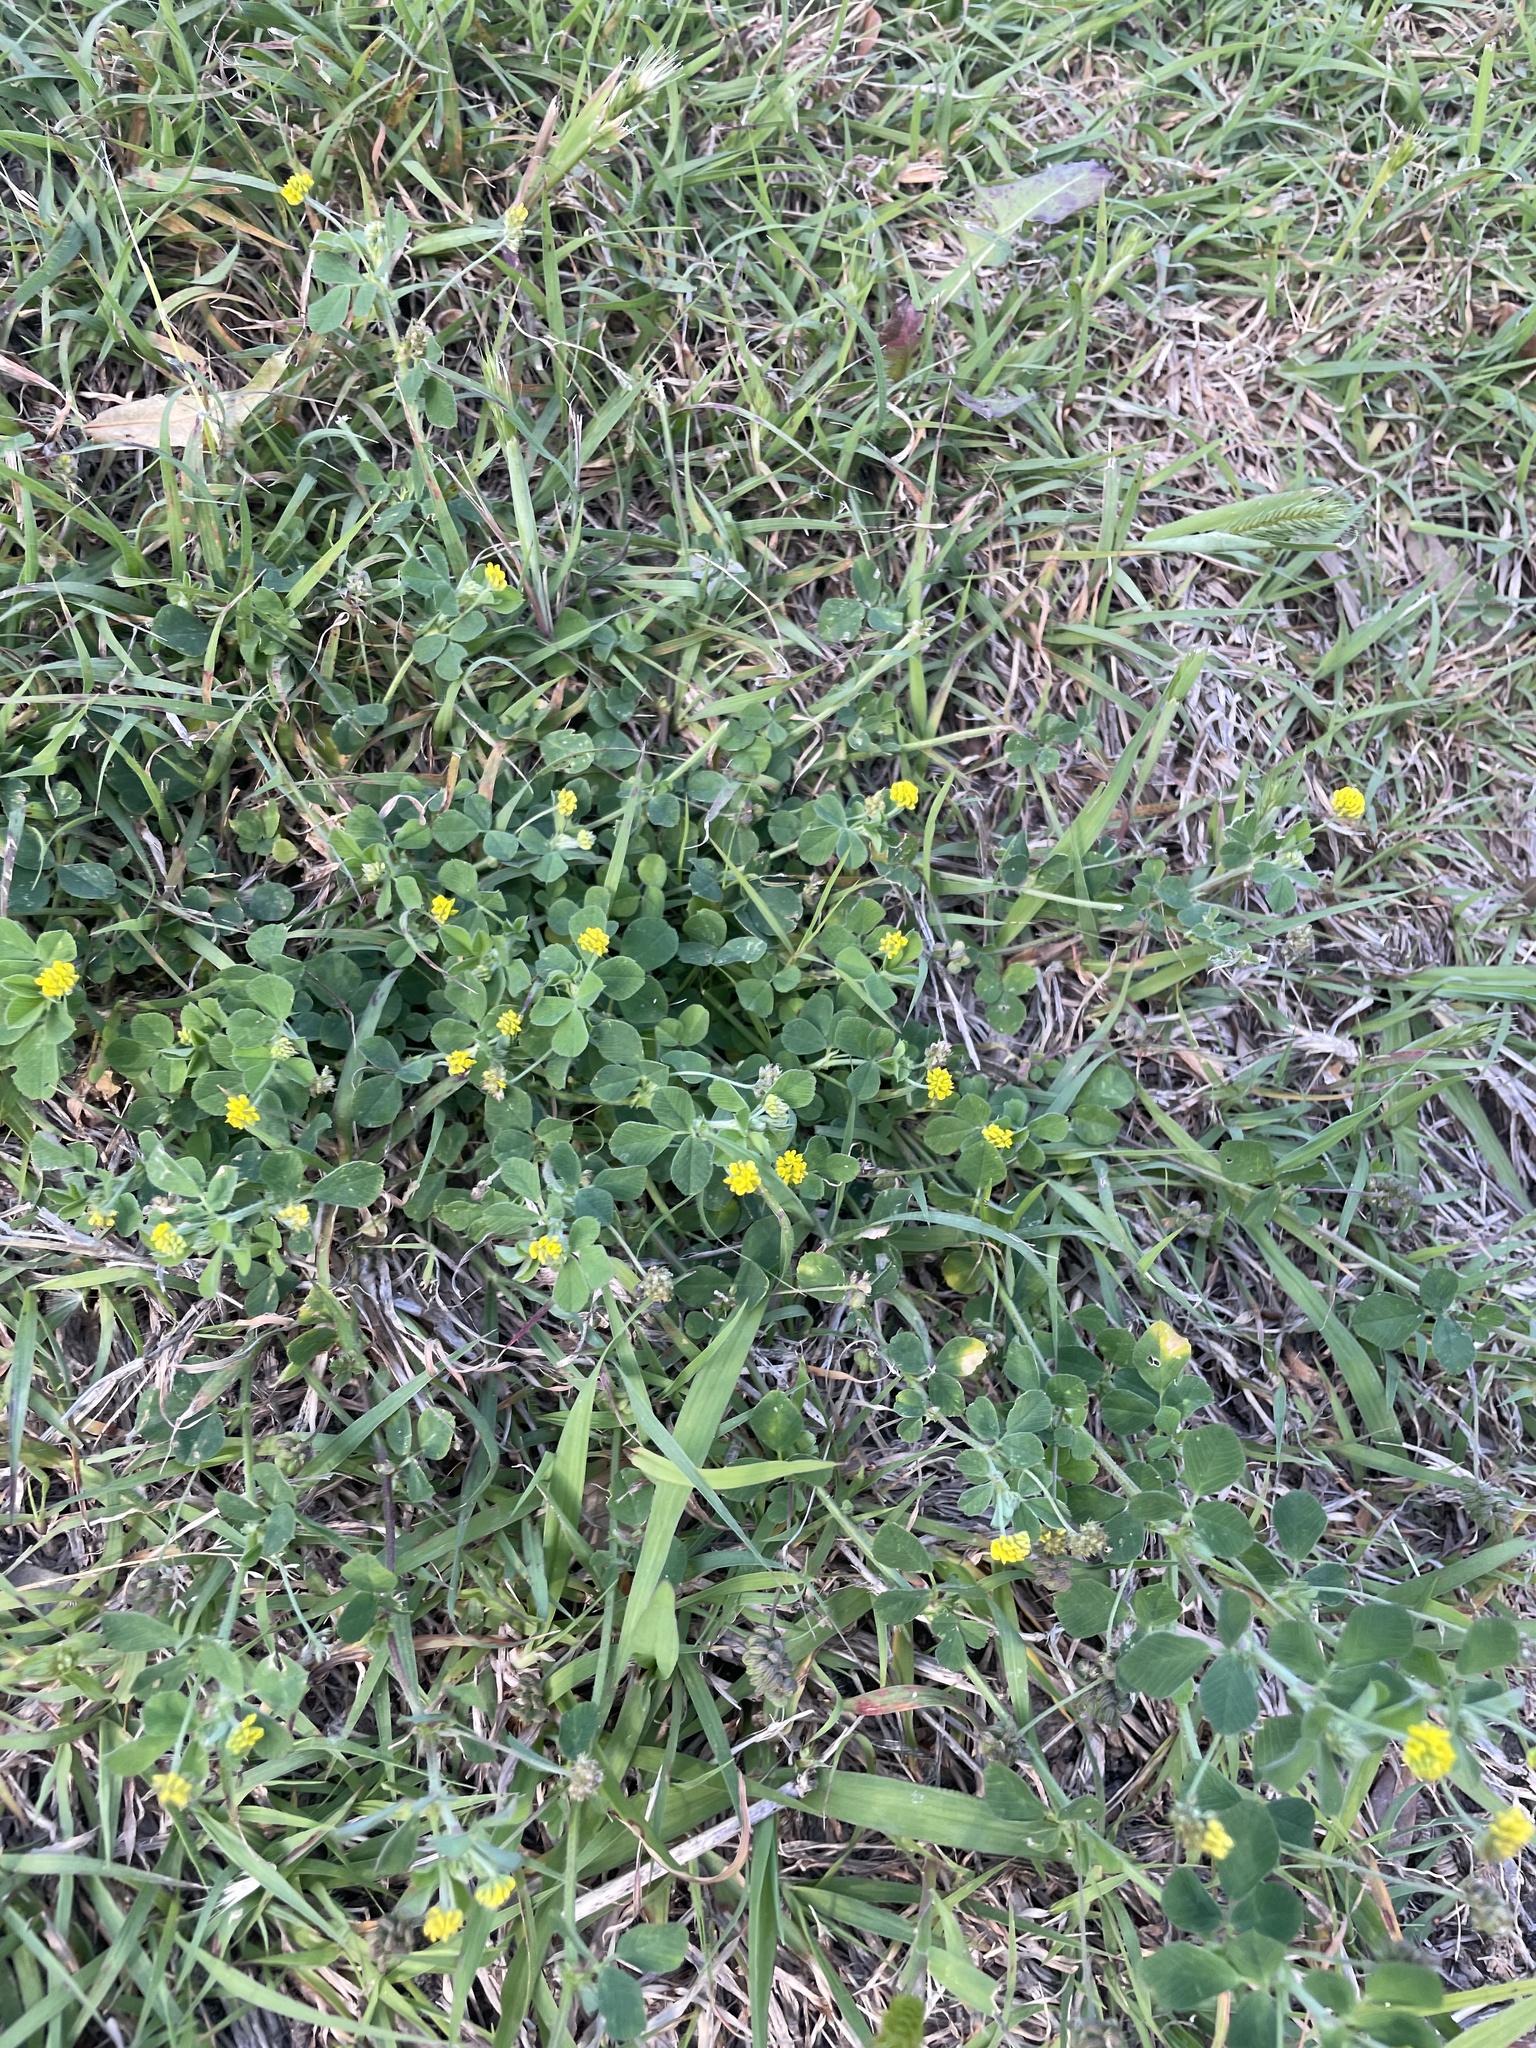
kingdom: Plantae
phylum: Tracheophyta
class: Magnoliopsida
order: Fabales
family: Fabaceae
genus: Medicago
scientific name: Medicago lupulina
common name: Black medick
